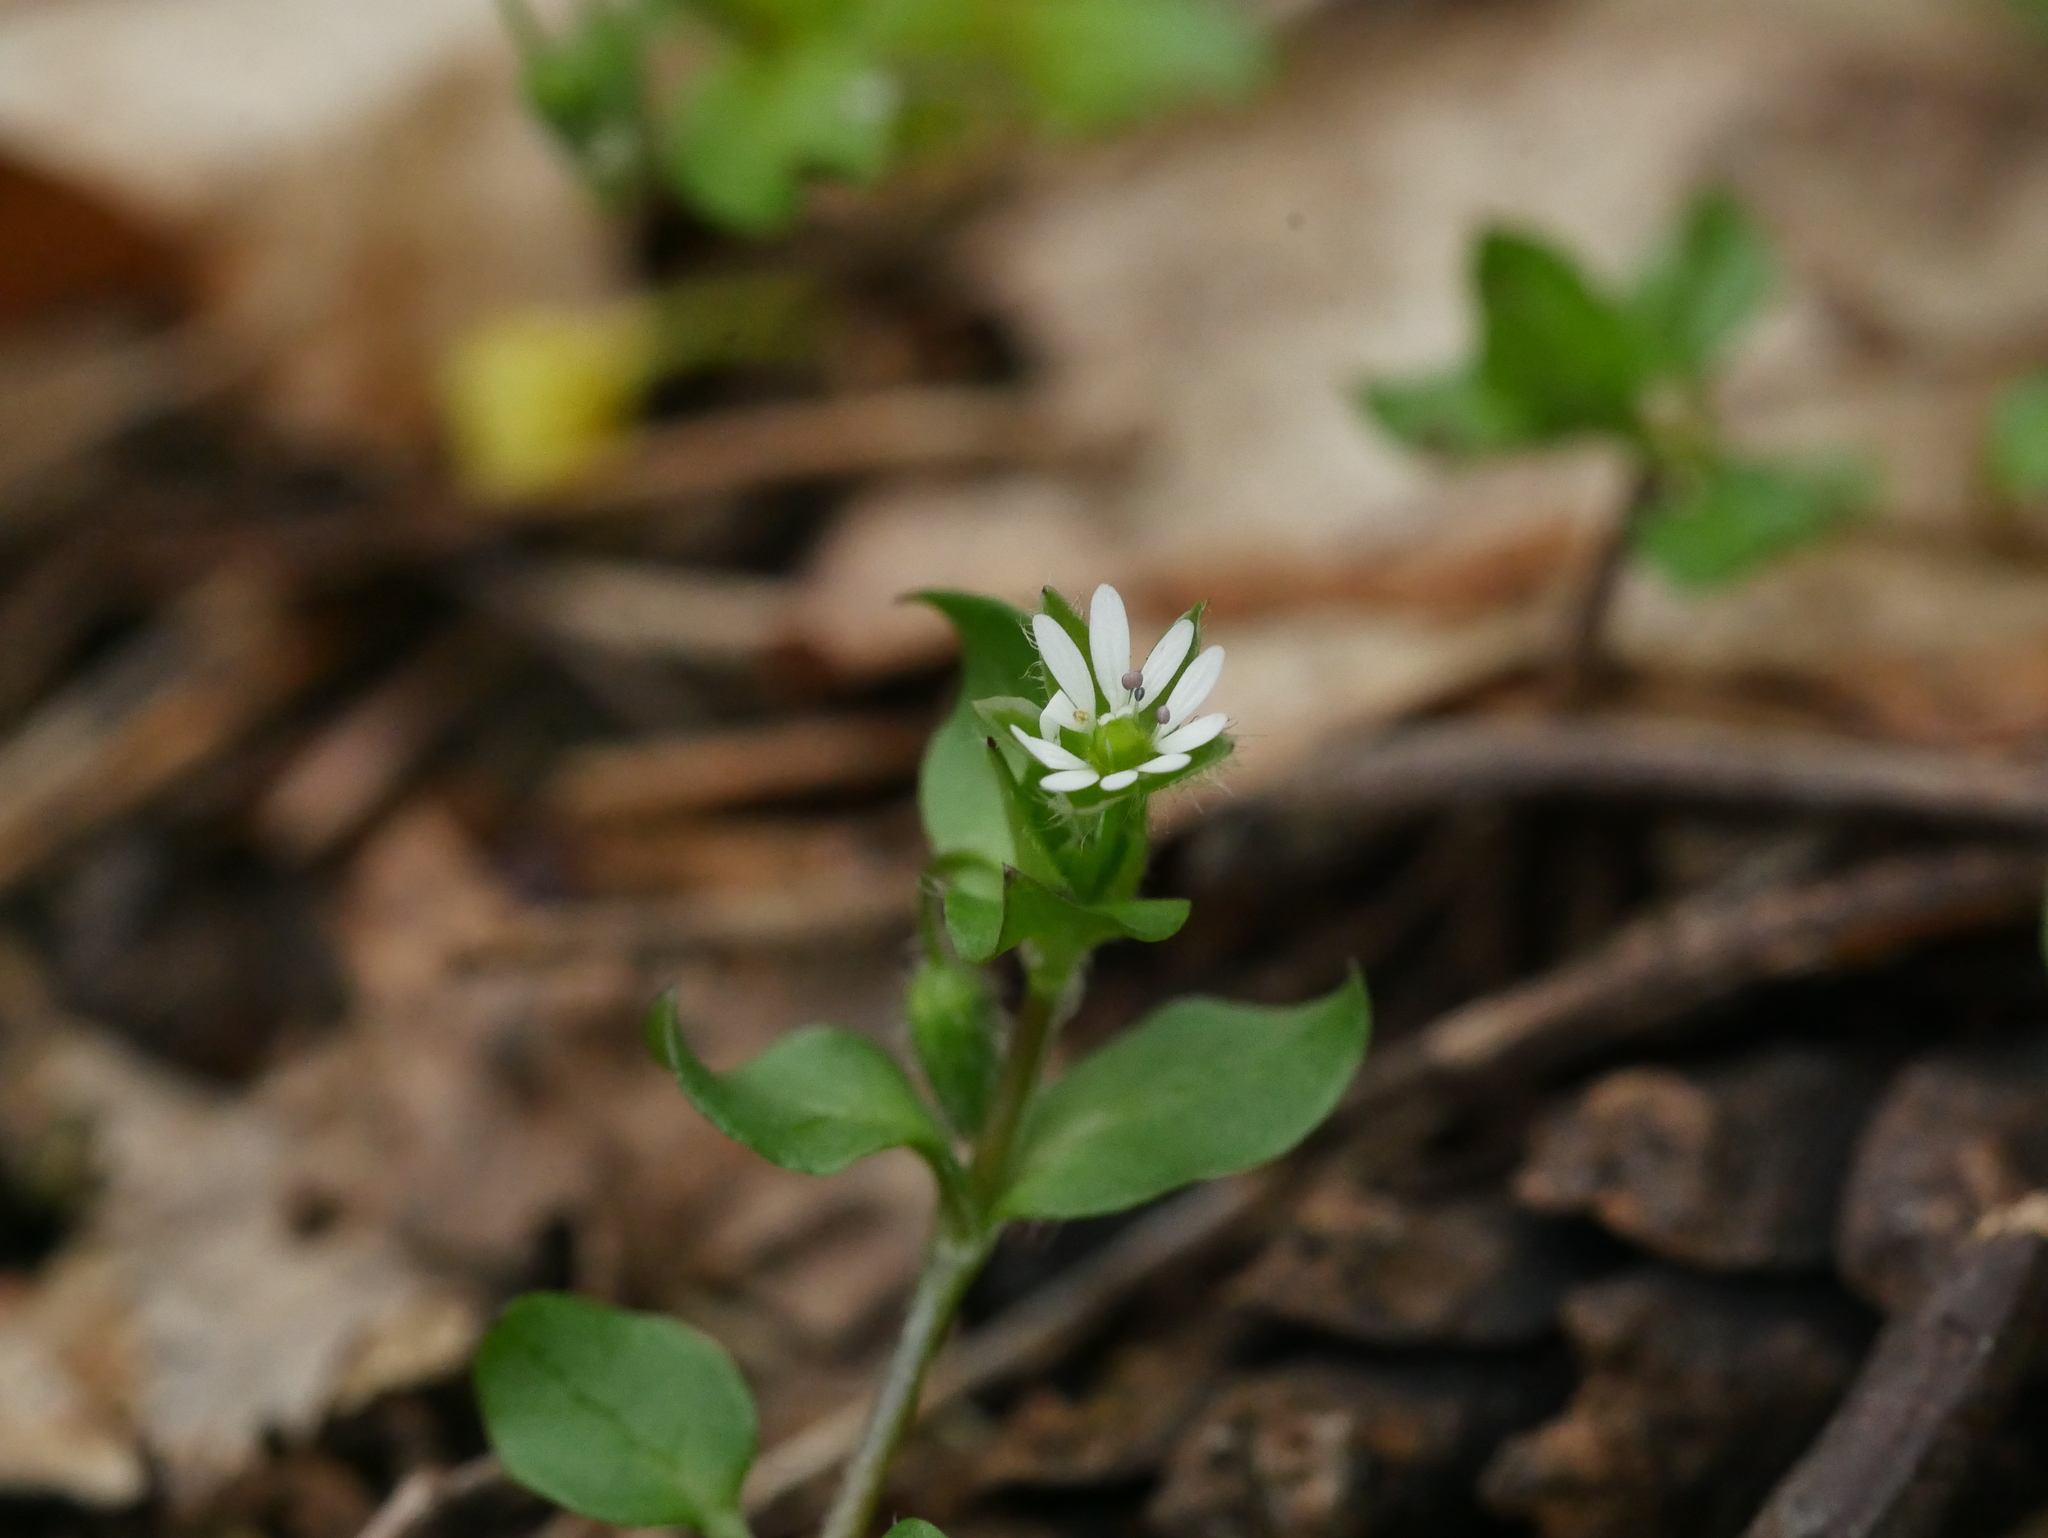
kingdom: Plantae
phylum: Tracheophyta
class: Magnoliopsida
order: Caryophyllales
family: Caryophyllaceae
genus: Stellaria
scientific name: Stellaria media
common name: Common chickweed
